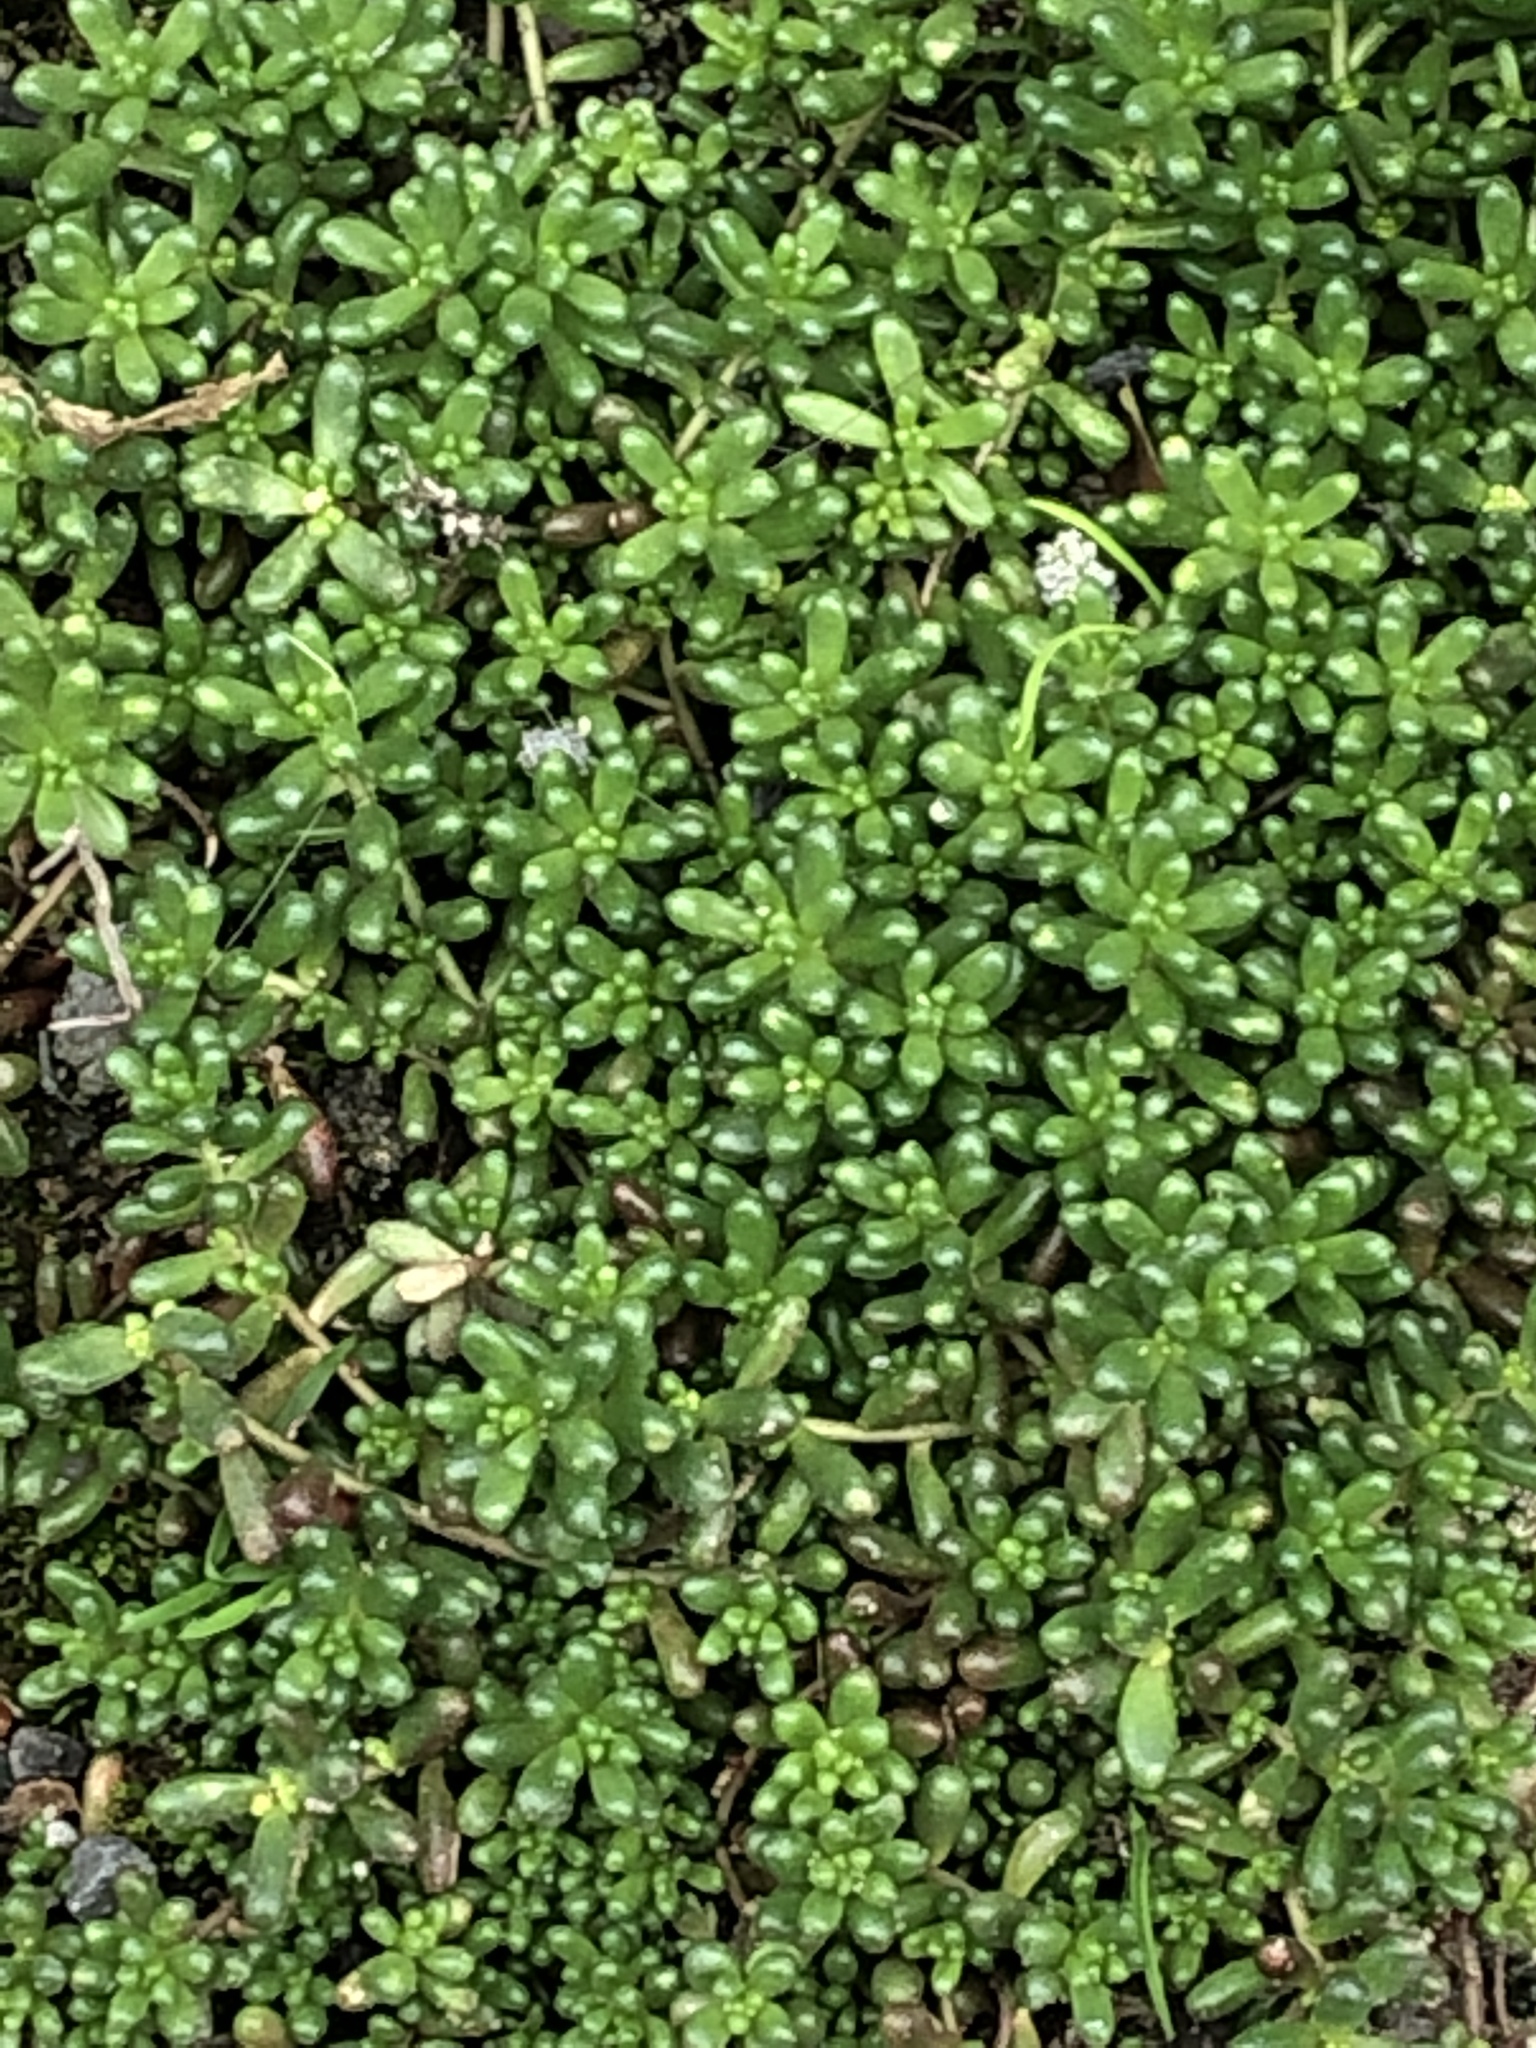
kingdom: Plantae
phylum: Tracheophyta
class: Magnoliopsida
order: Saxifragales
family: Crassulaceae
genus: Sedum
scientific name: Sedum album
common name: White stonecrop
